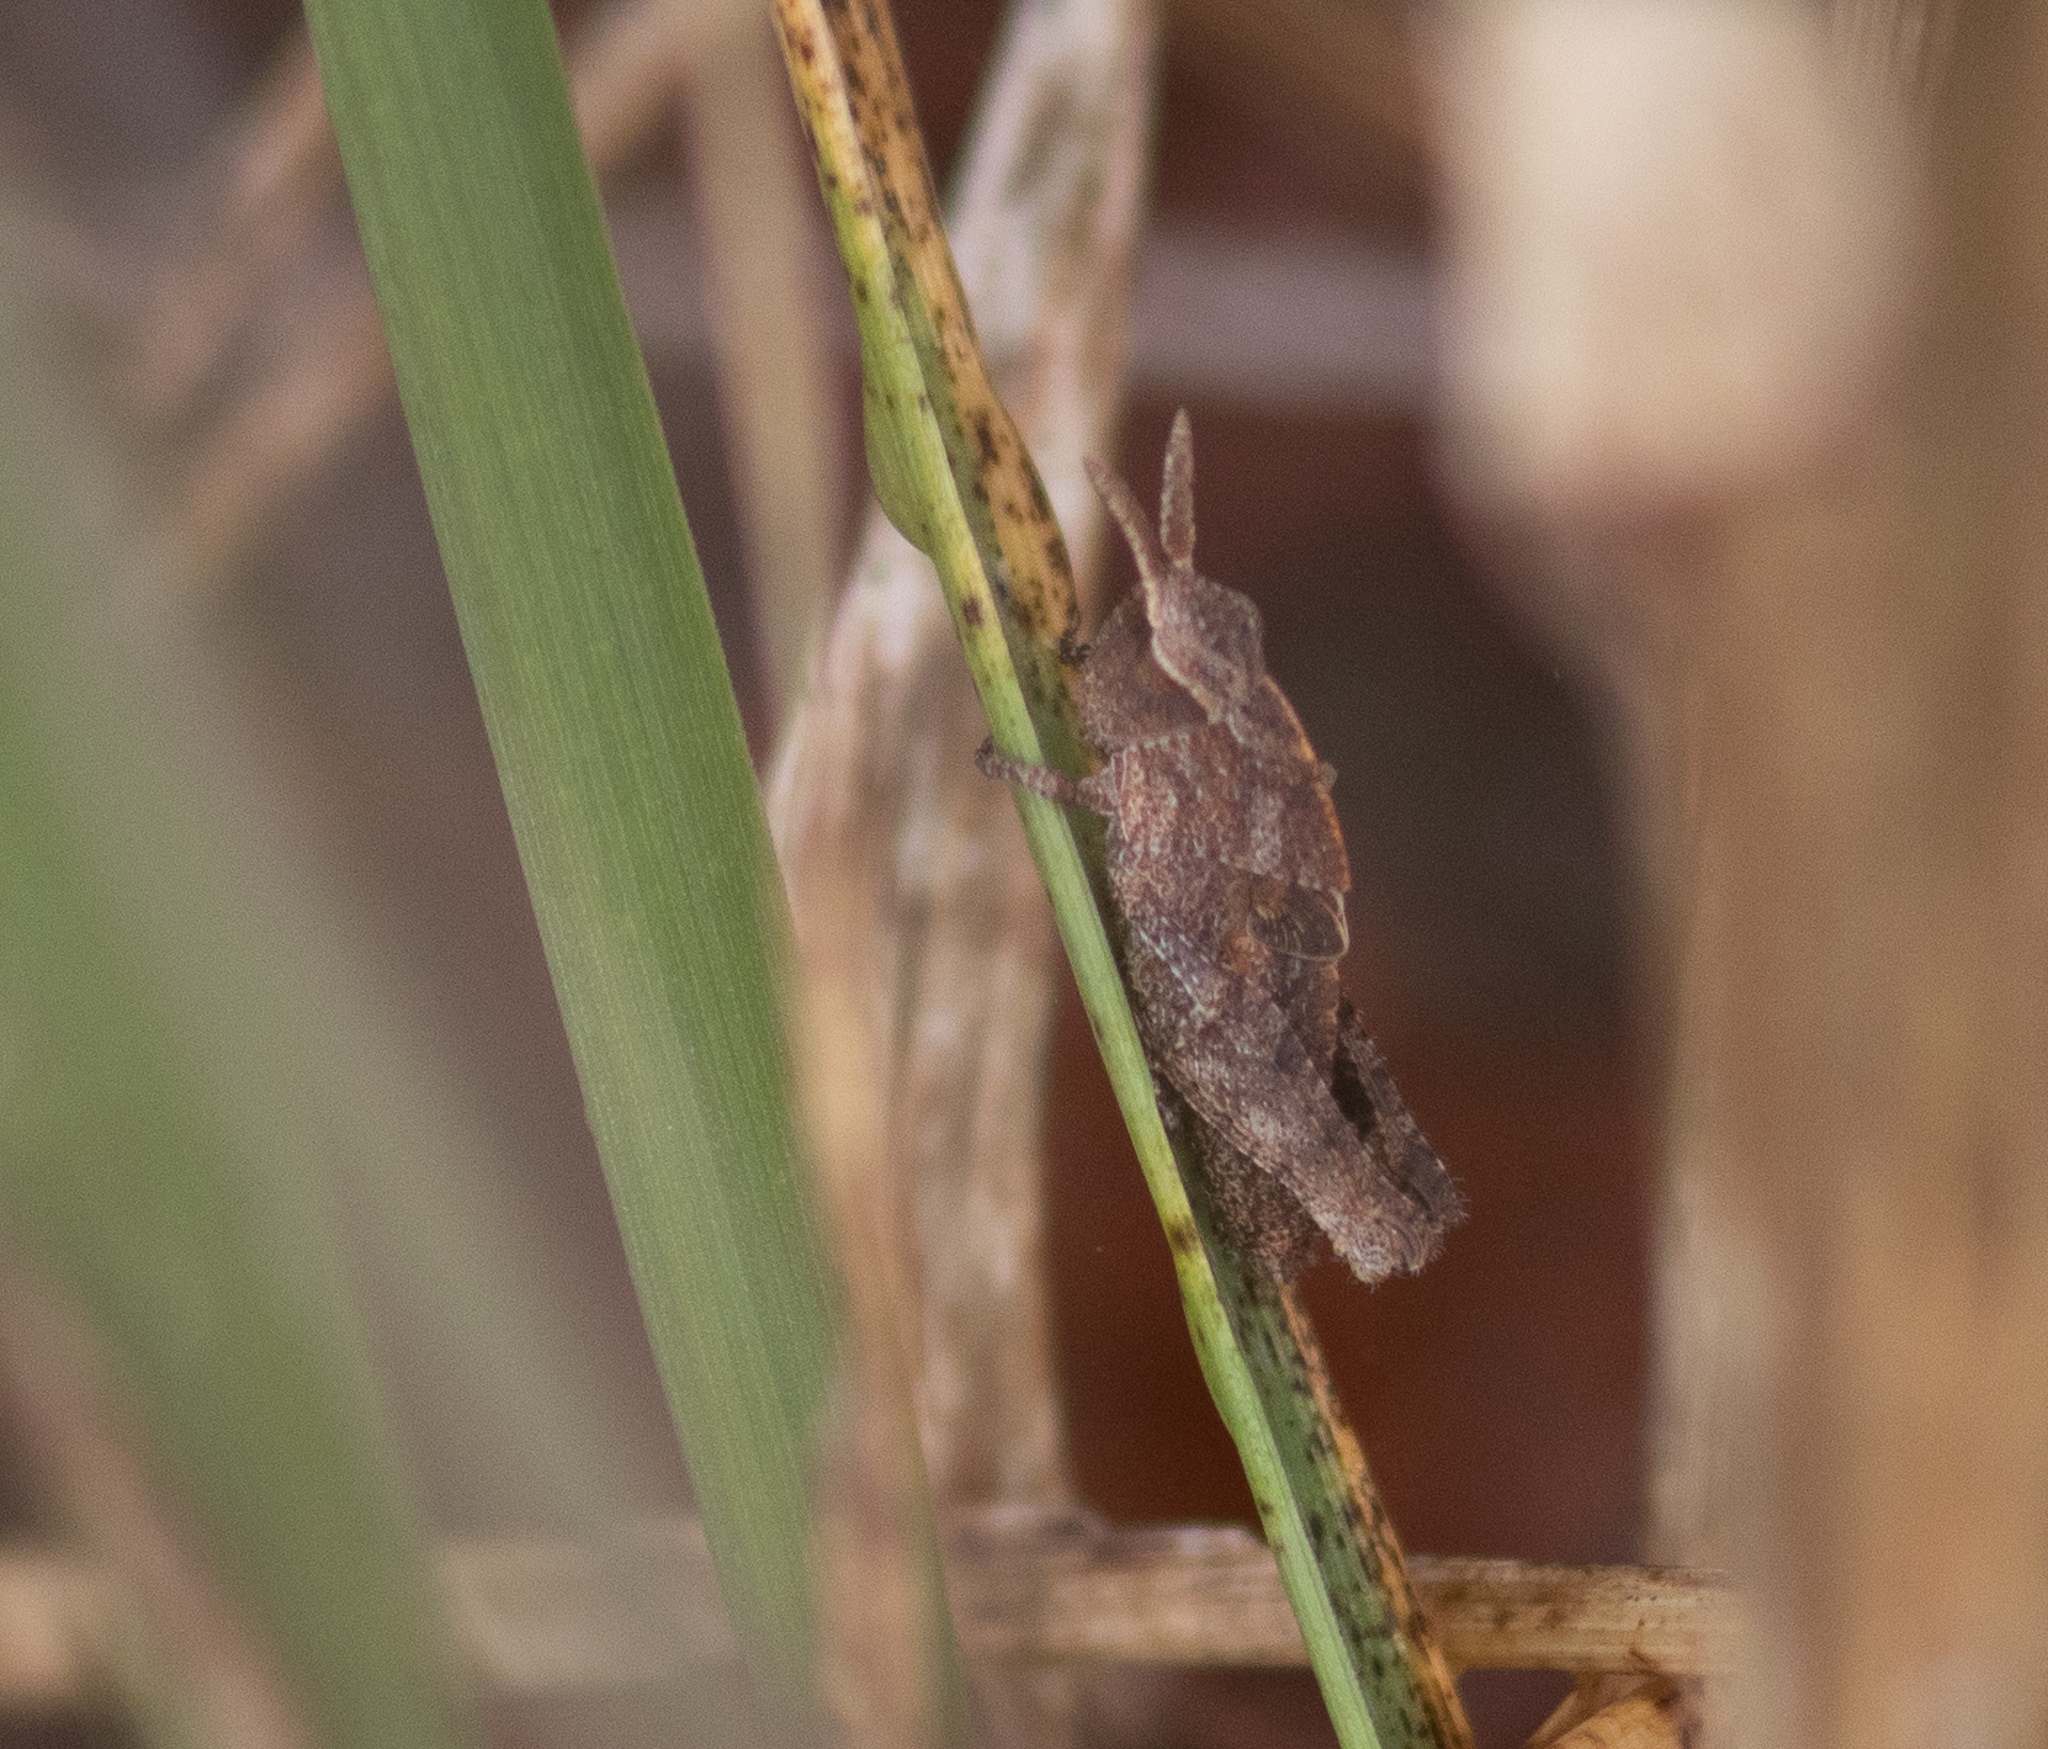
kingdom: Animalia
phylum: Arthropoda
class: Insecta
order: Orthoptera
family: Acrididae
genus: Chortophaga
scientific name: Chortophaga viridifasciata
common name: Green-striped grasshopper
